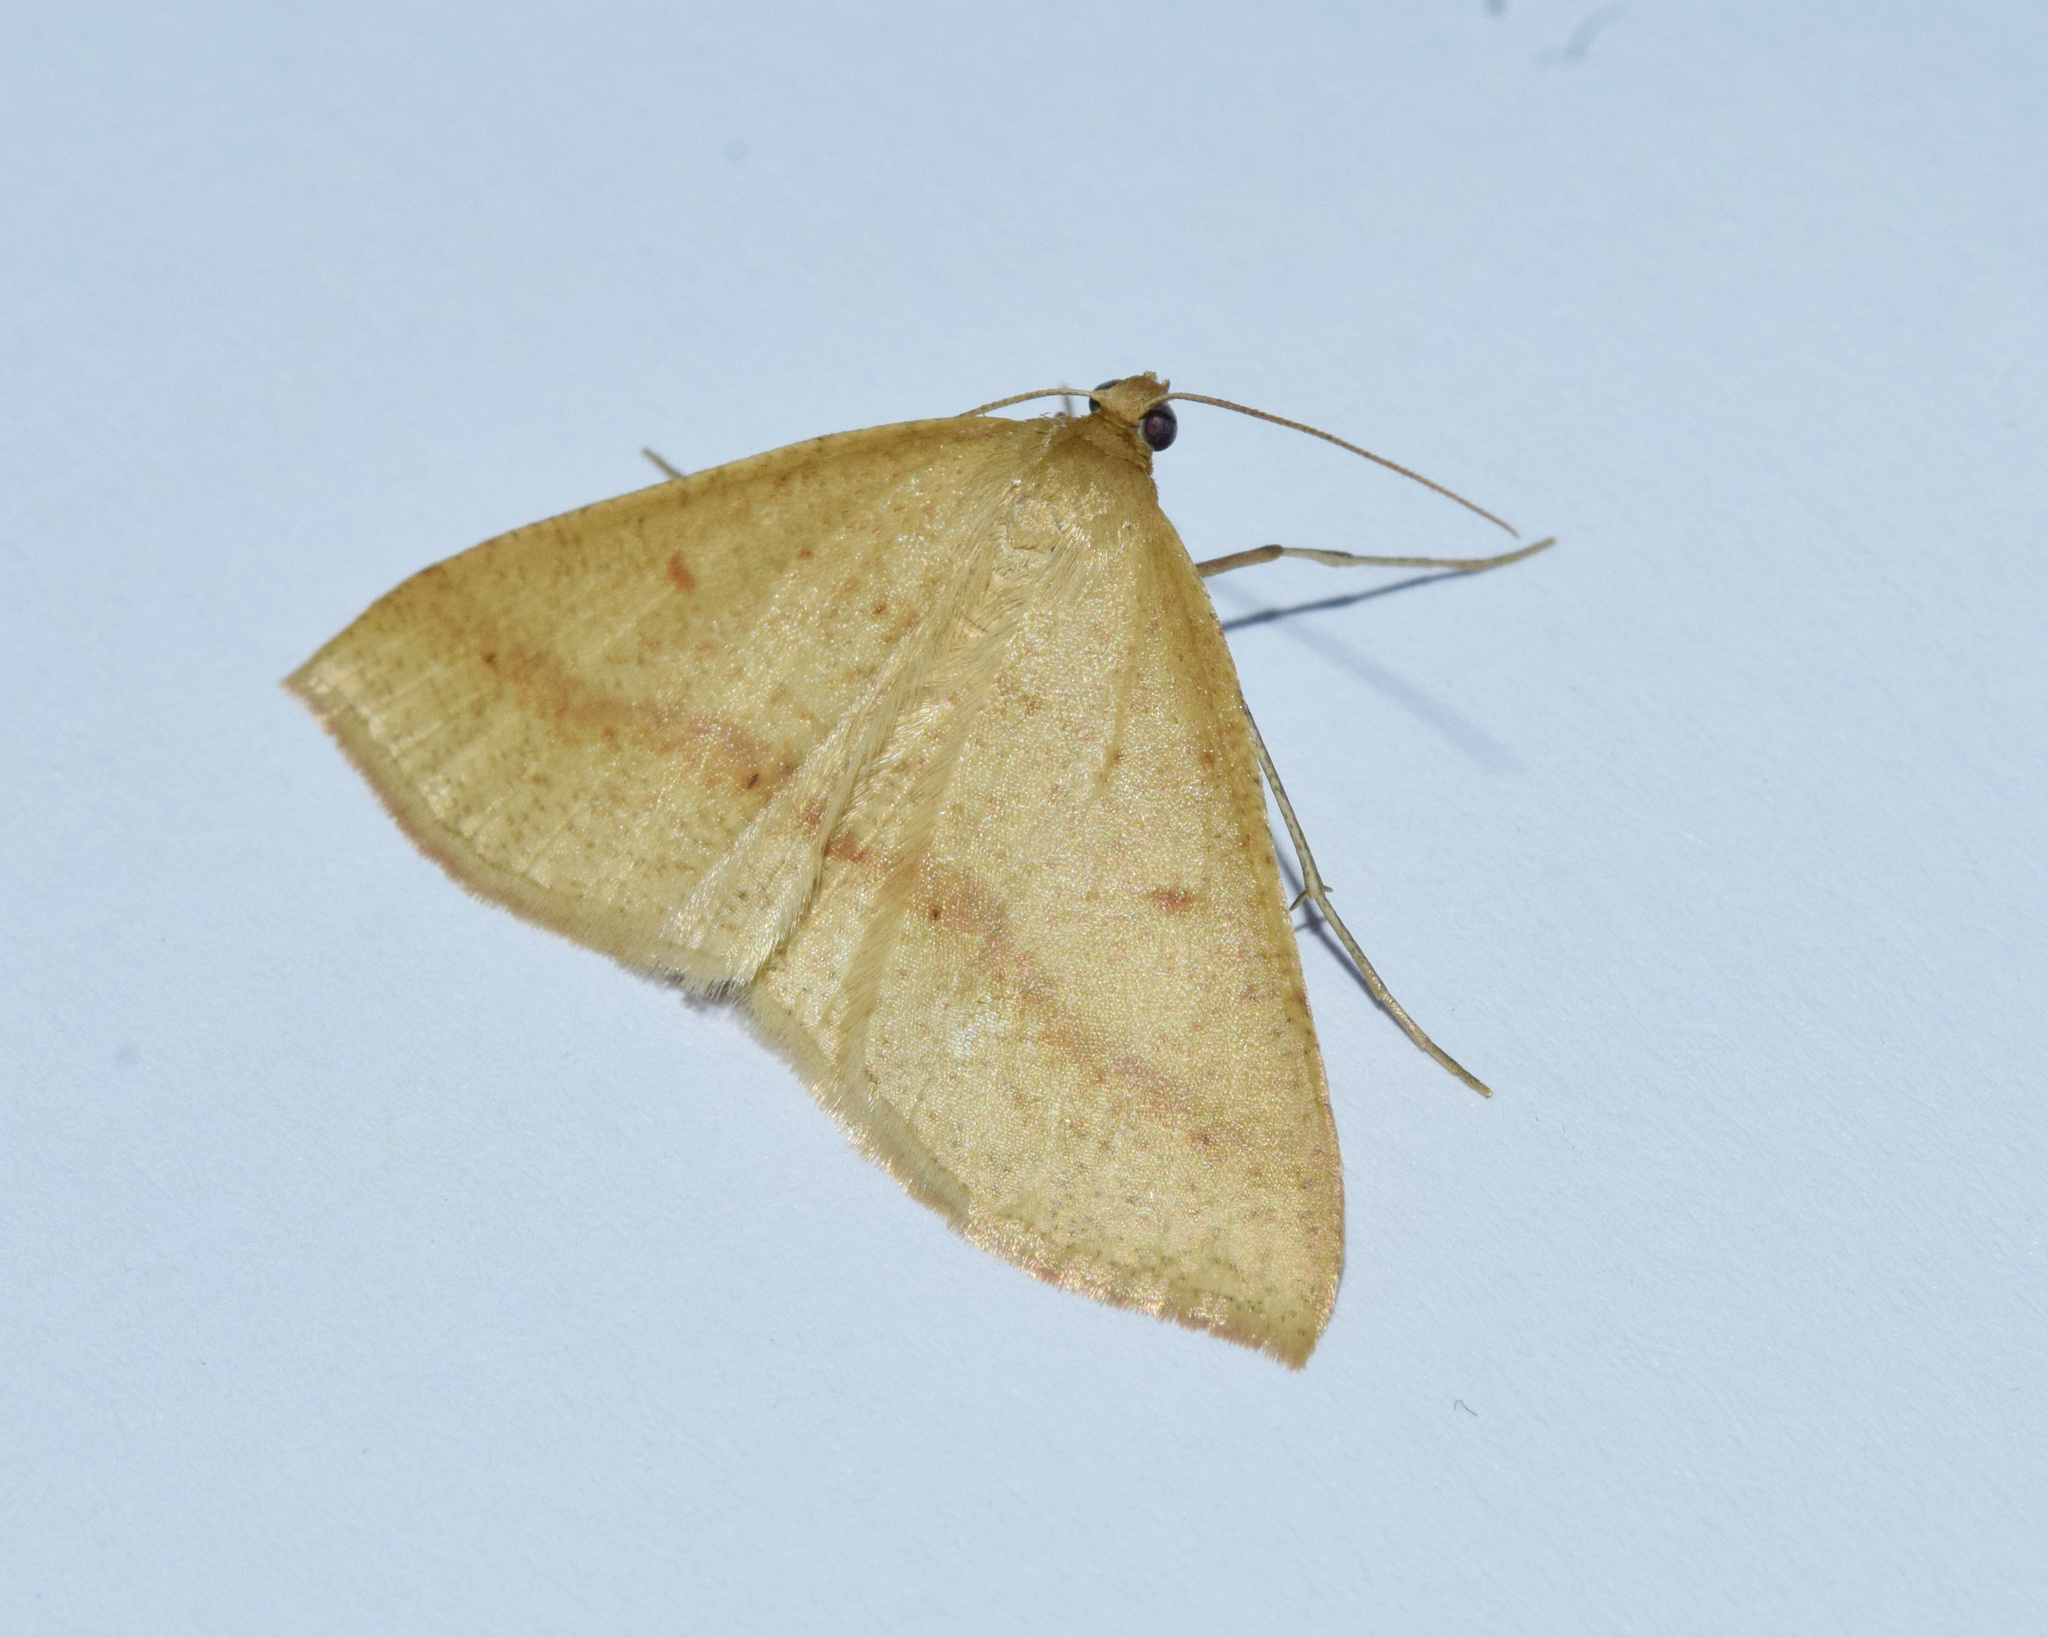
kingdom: Animalia
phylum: Arthropoda
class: Insecta
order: Lepidoptera
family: Geometridae
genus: Palaeaspilates
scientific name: Palaeaspilates inoffensa
